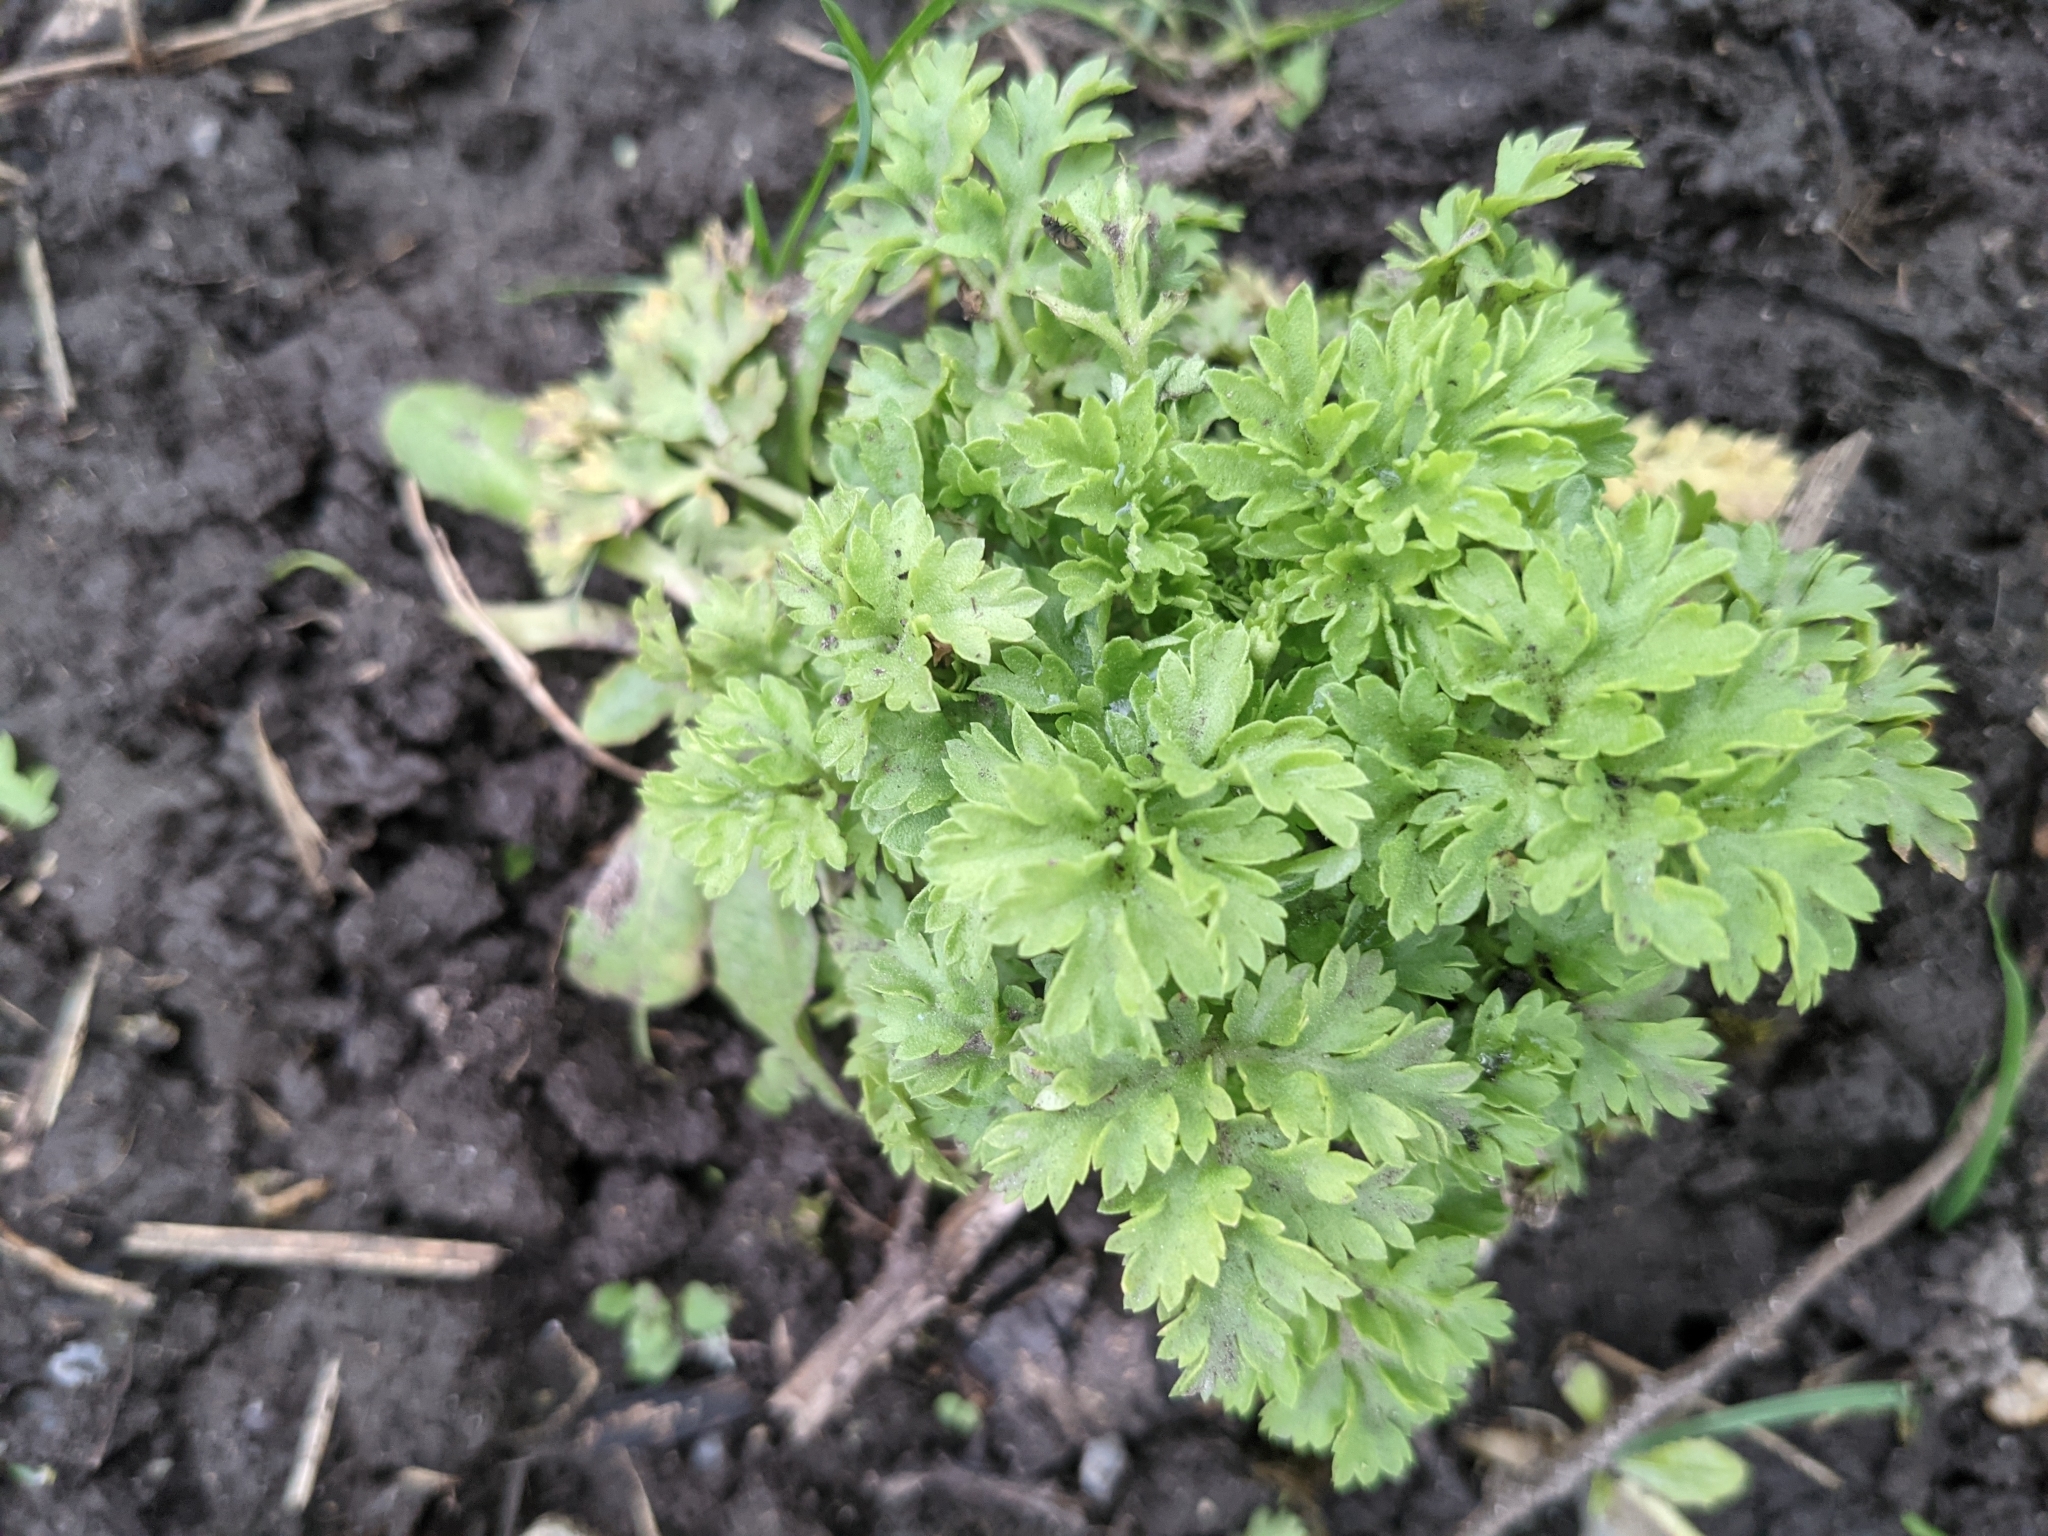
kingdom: Plantae
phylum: Tracheophyta
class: Magnoliopsida
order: Asterales
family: Asteraceae
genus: Tanacetum
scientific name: Tanacetum parthenium
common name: Feverfew
